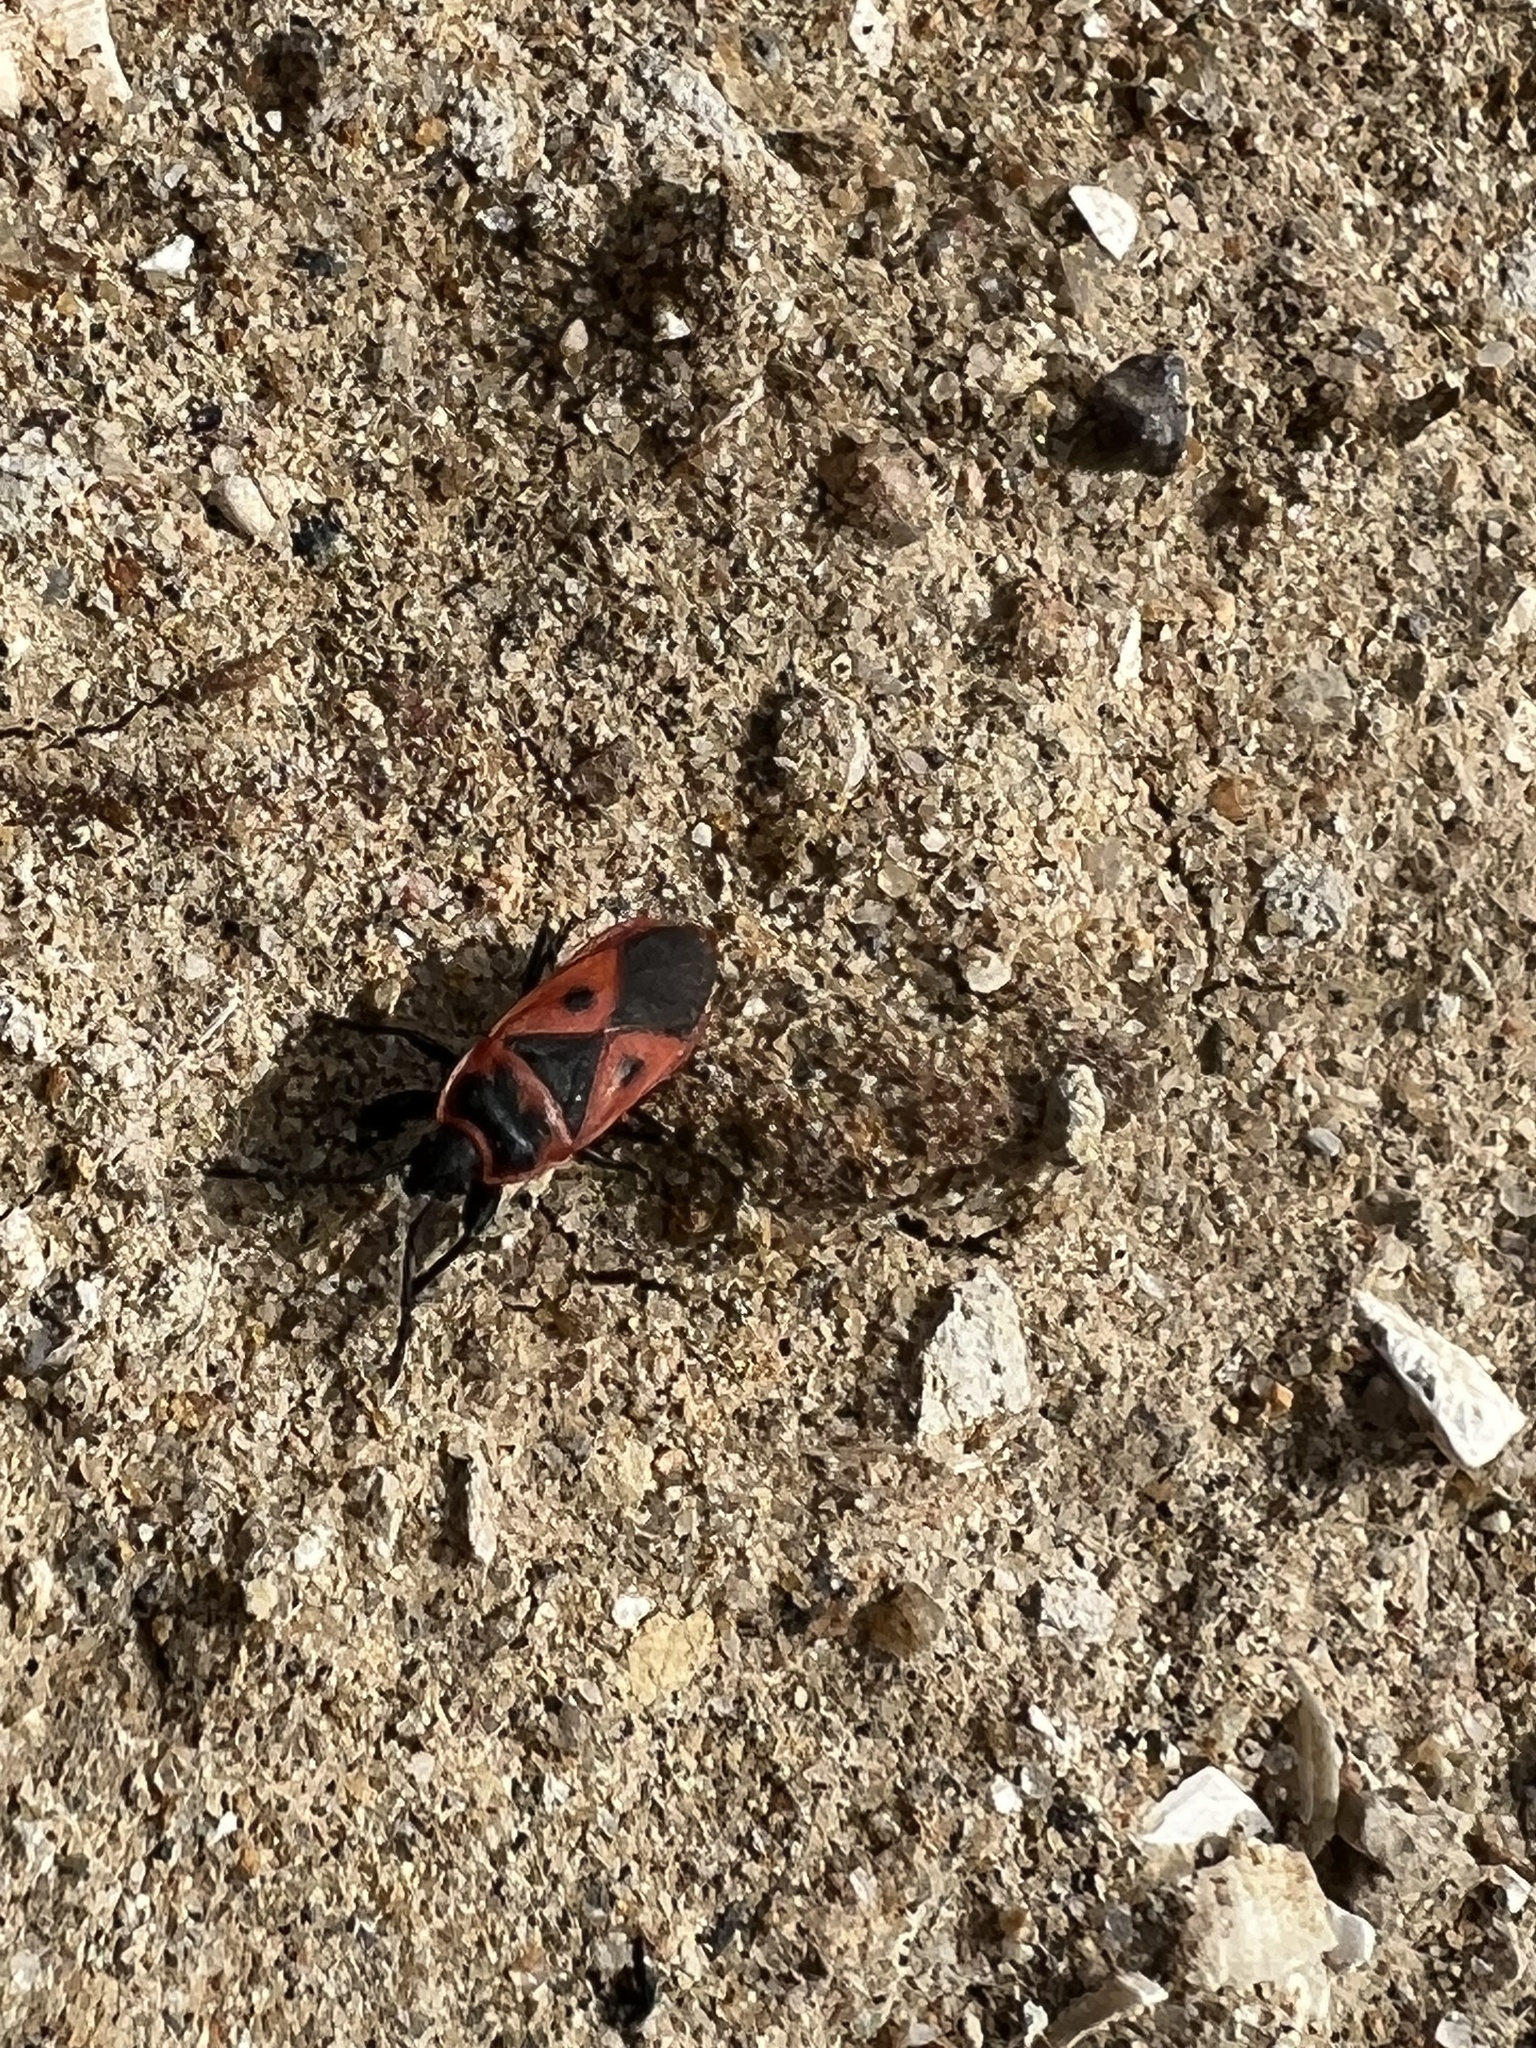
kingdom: Animalia
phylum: Arthropoda
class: Insecta
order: Hemiptera
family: Pyrrhocoridae
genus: Scantius
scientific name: Scantius aegyptius
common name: Red bug
